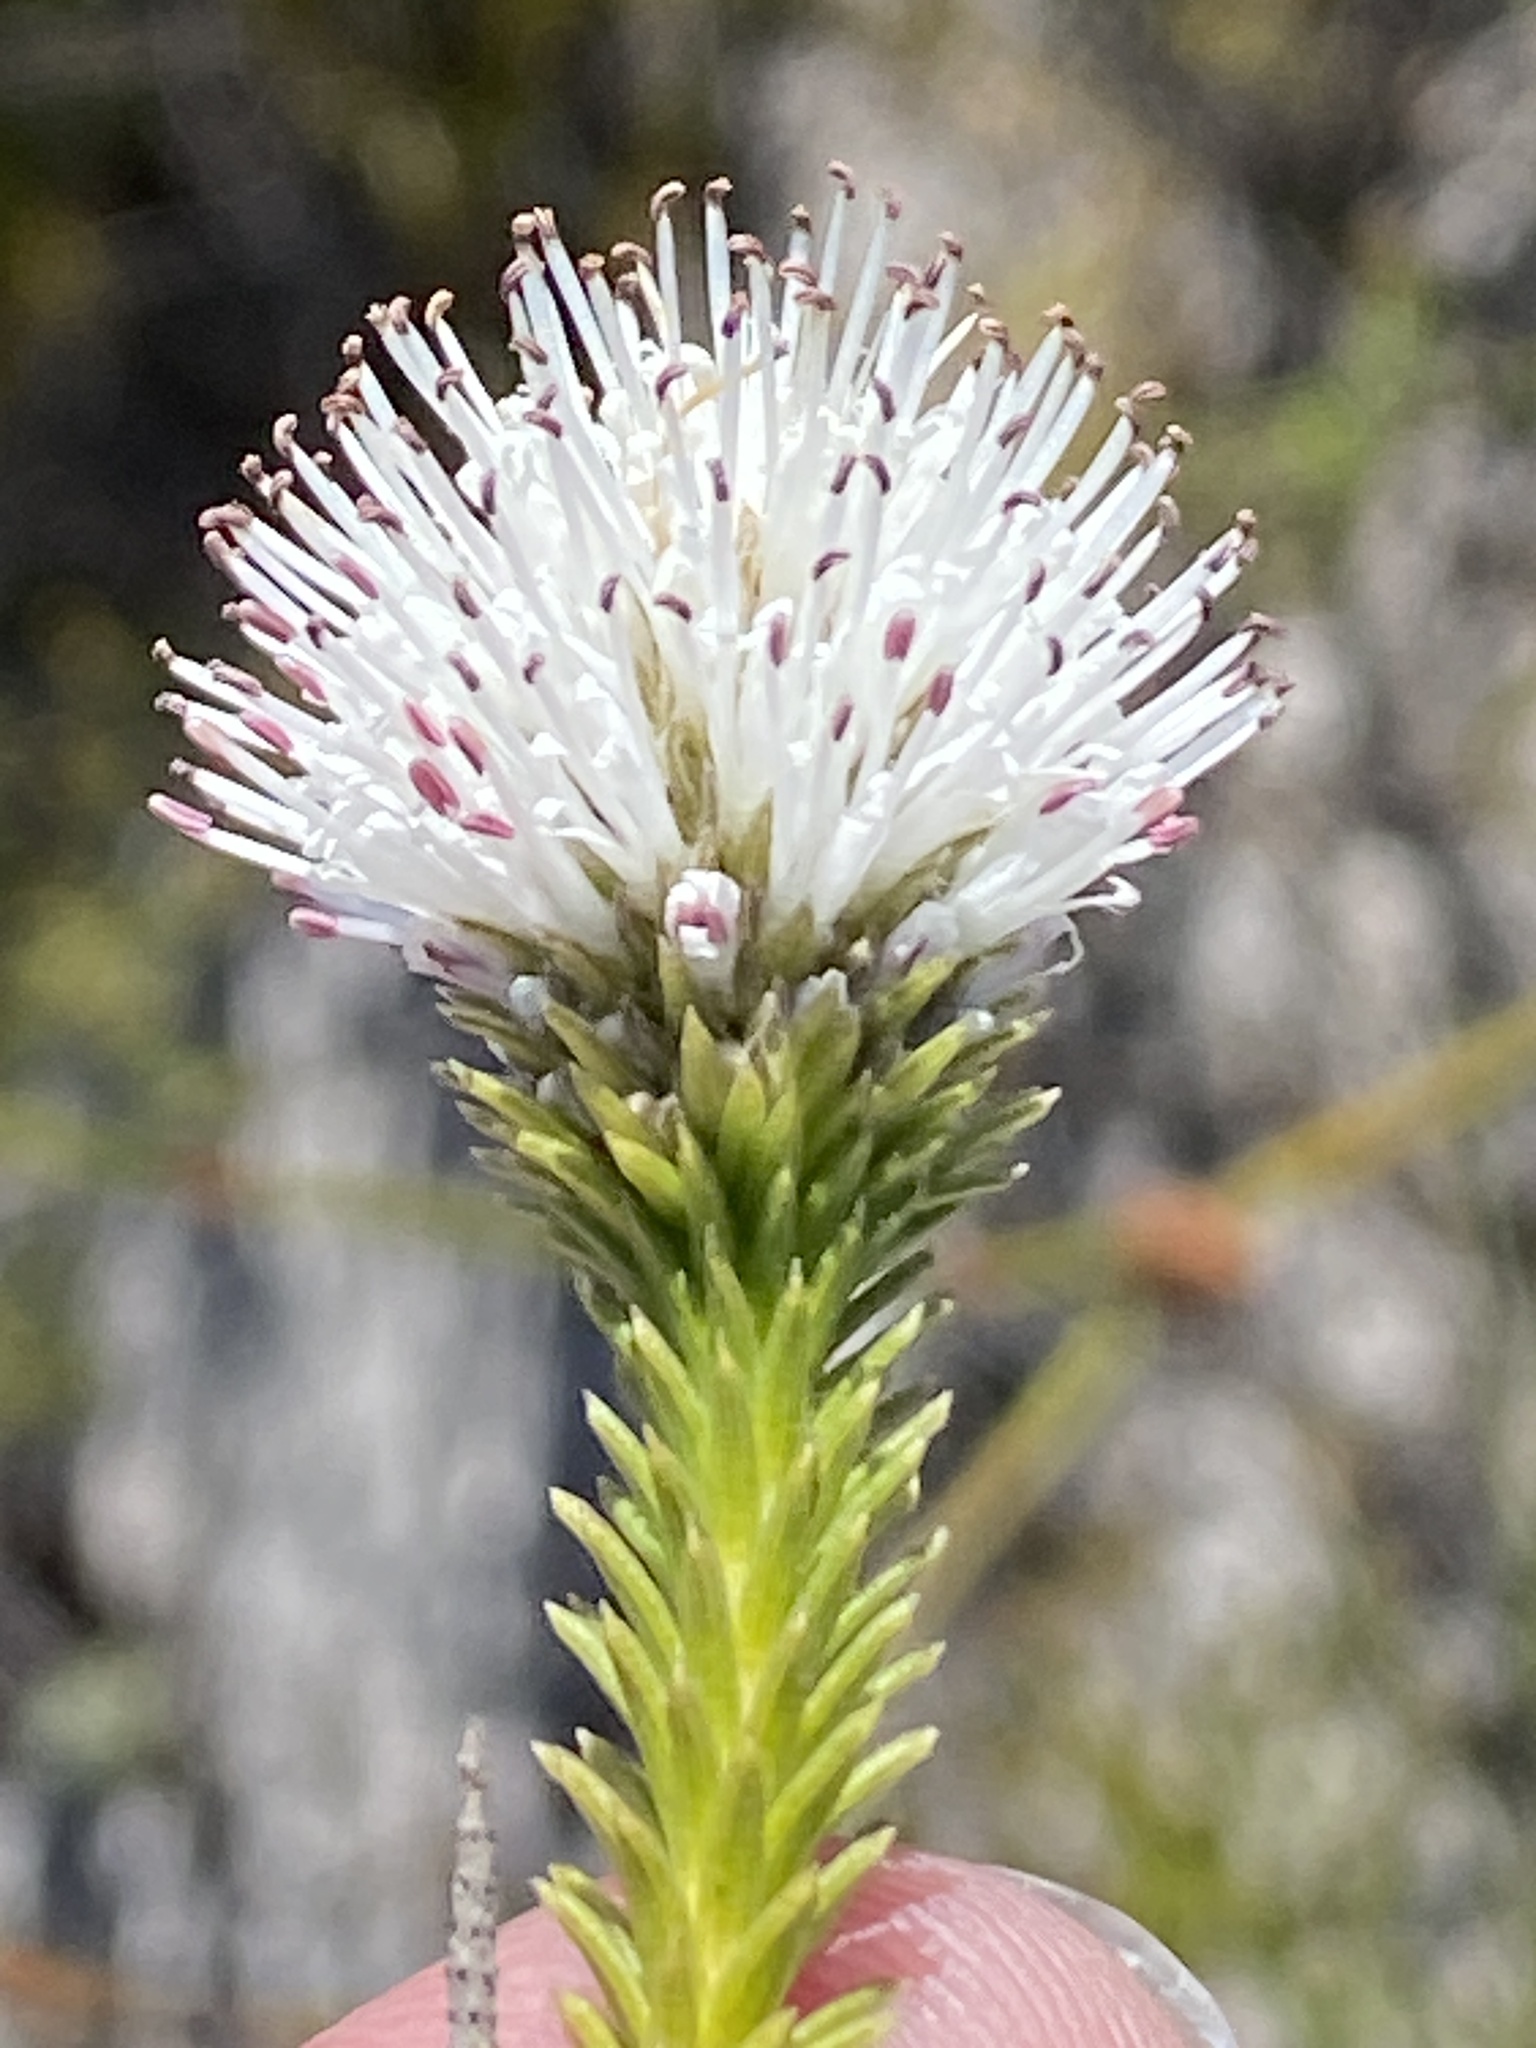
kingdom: Plantae
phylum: Tracheophyta
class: Magnoliopsida
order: Lamiales
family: Stilbaceae
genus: Stilbe
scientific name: Stilbe albiflora
